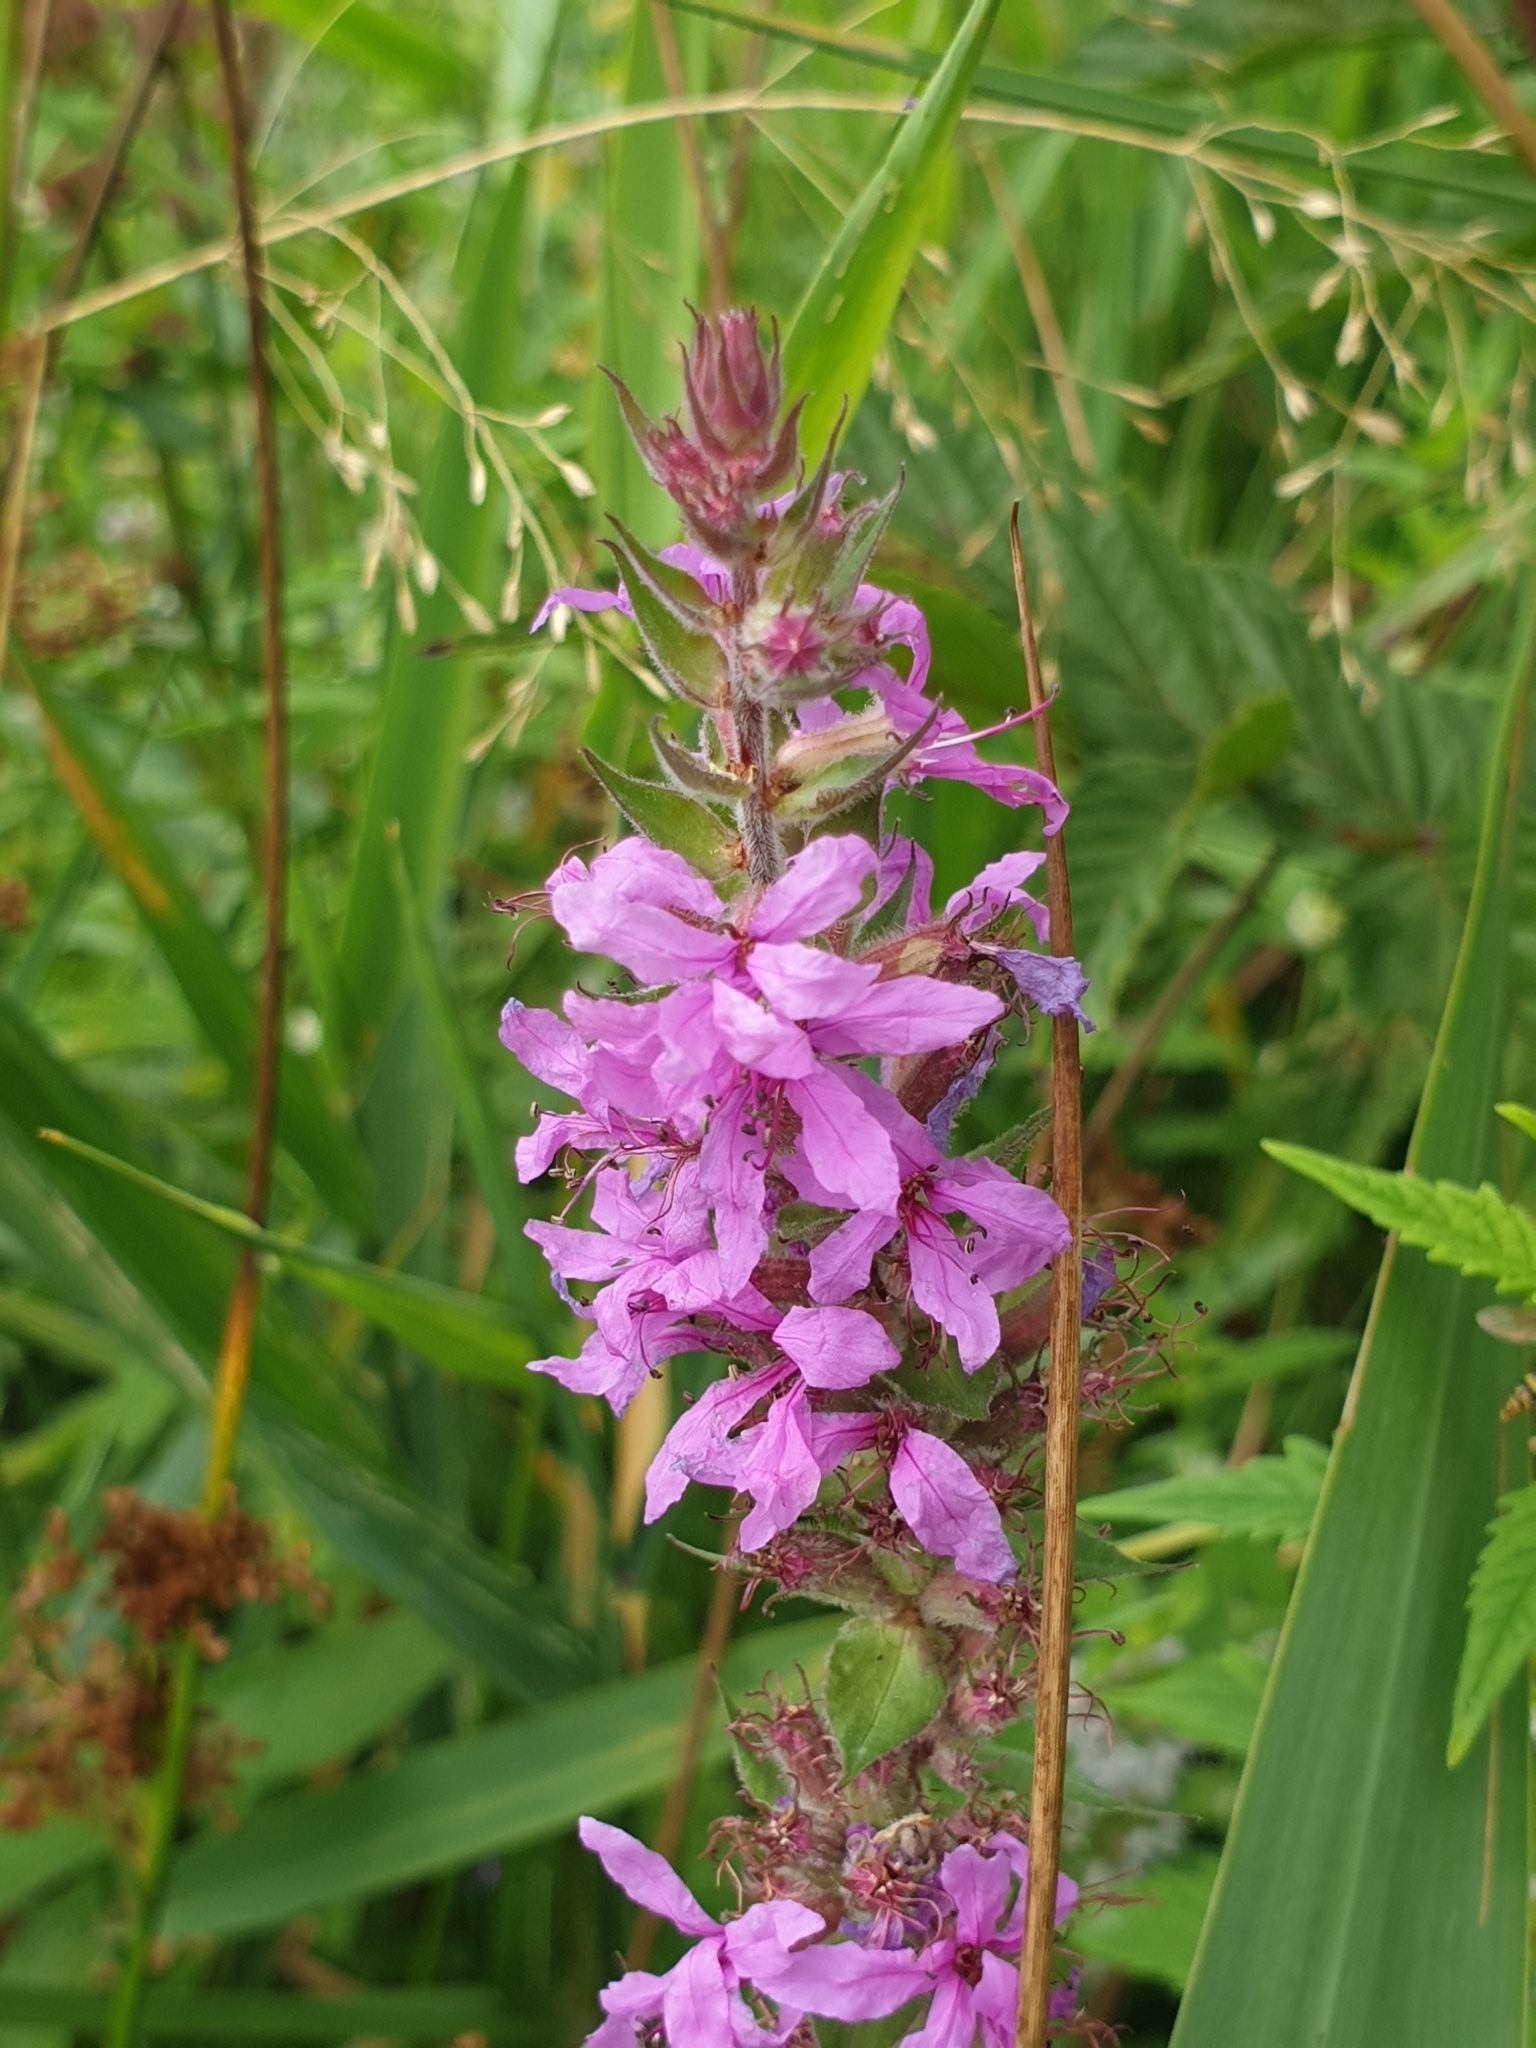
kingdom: Plantae
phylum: Tracheophyta
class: Magnoliopsida
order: Myrtales
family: Lythraceae
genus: Lythrum
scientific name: Lythrum salicaria
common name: Purple loosestrife
